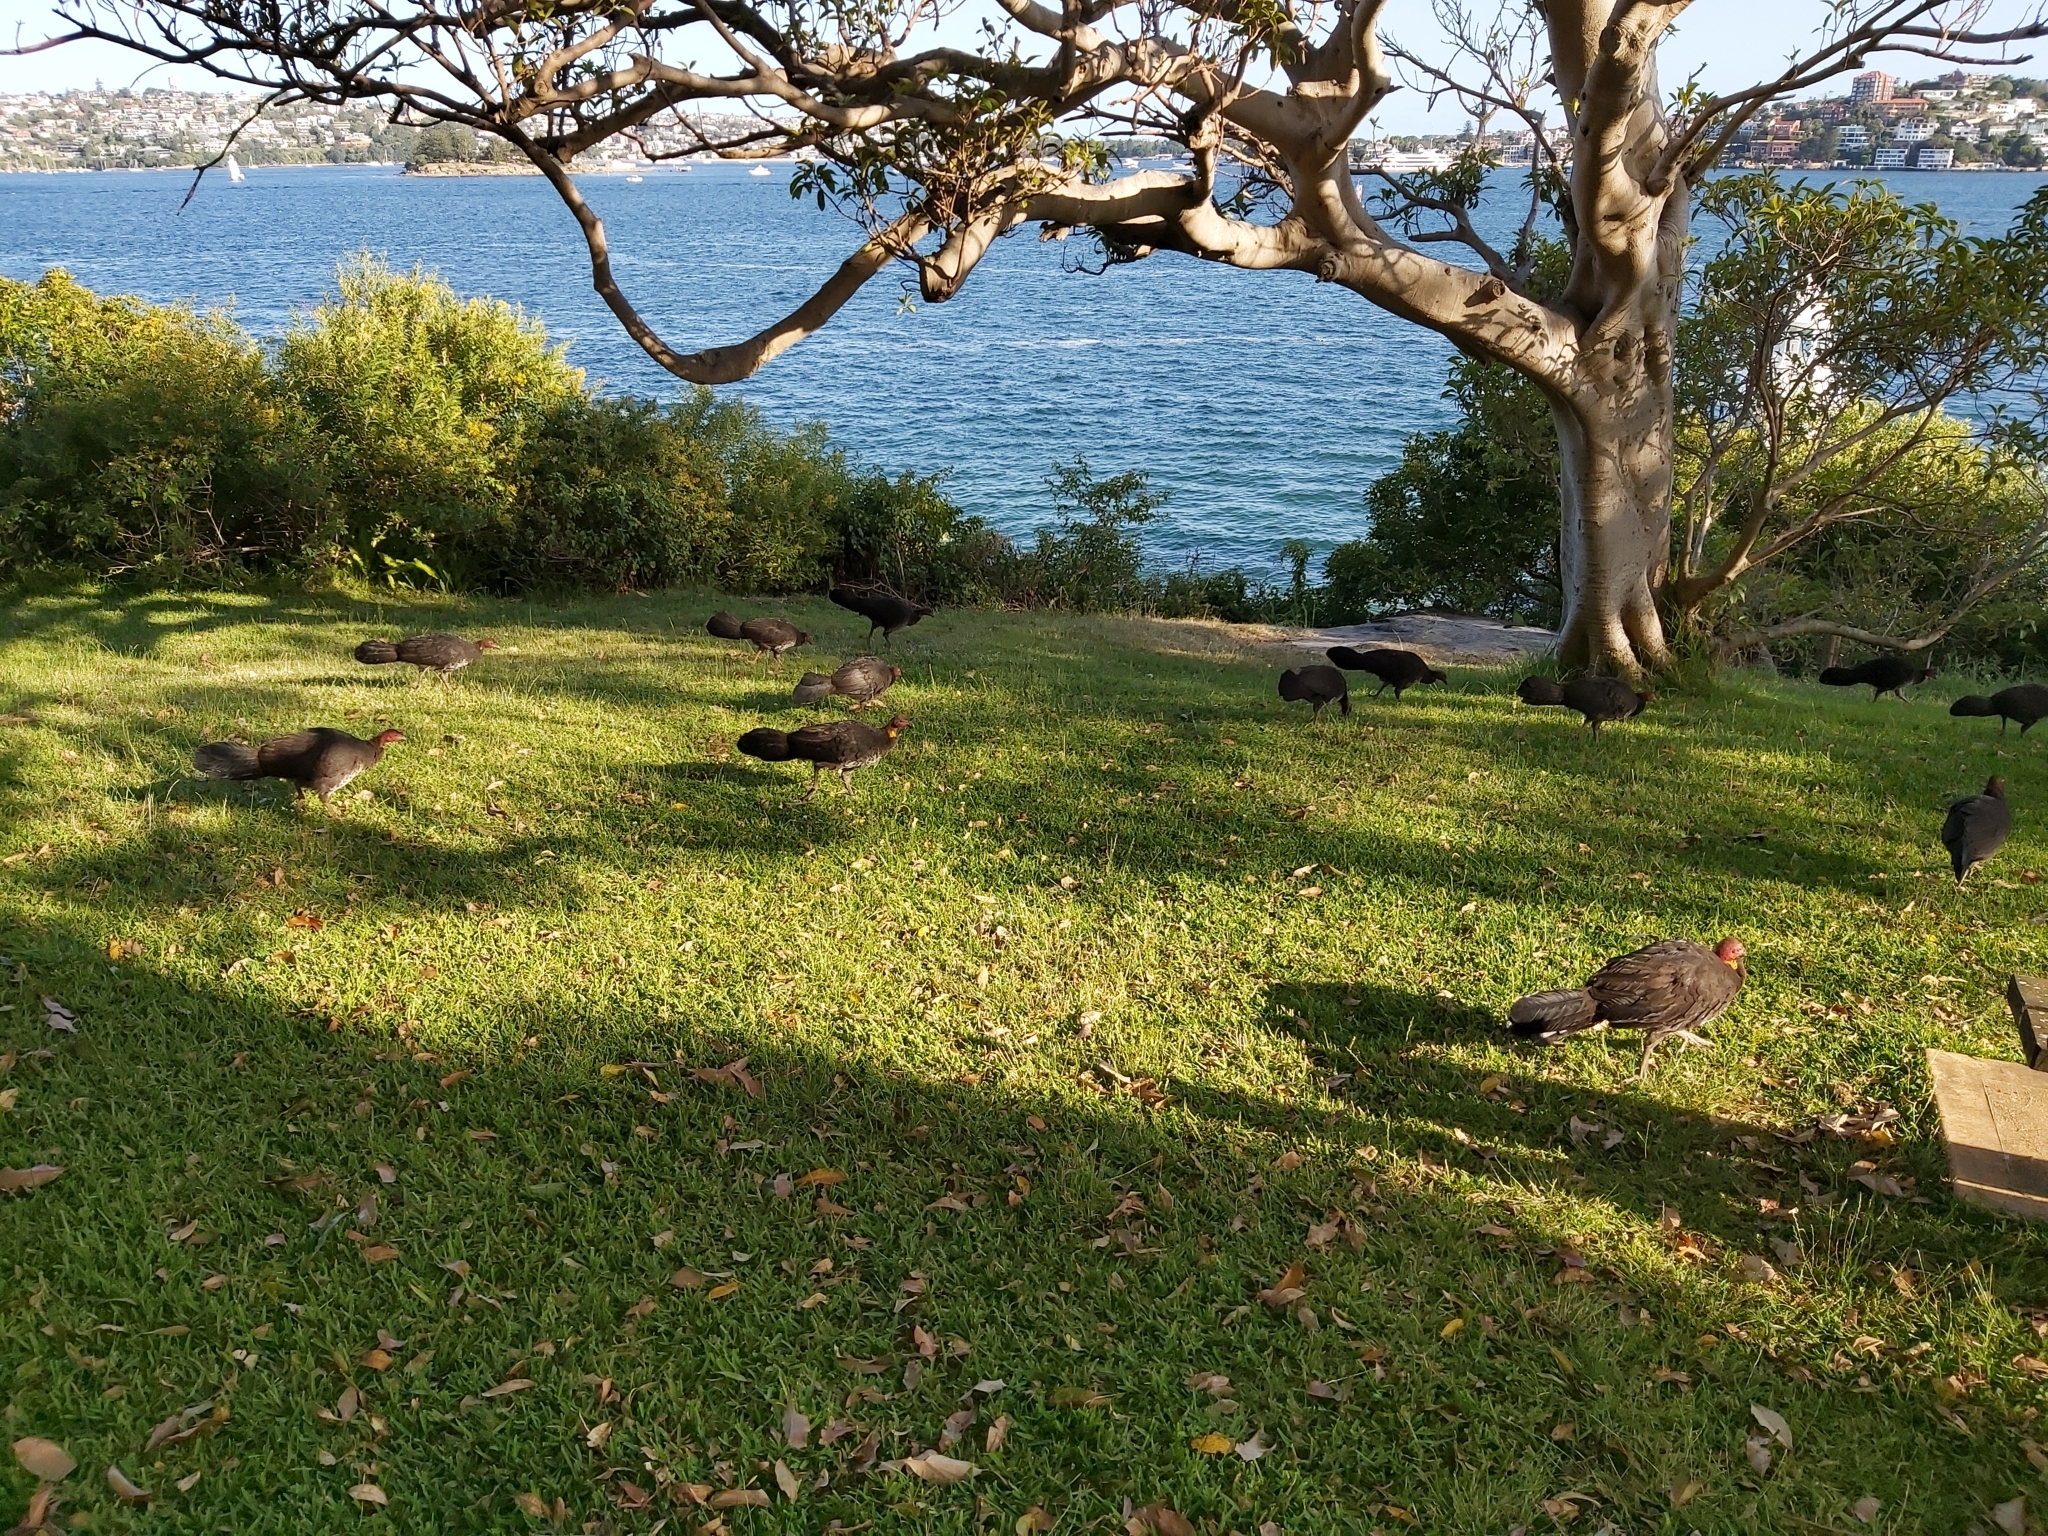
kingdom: Animalia
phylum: Chordata
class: Aves
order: Galliformes
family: Megapodiidae
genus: Alectura
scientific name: Alectura lathami
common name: Australian brushturkey
